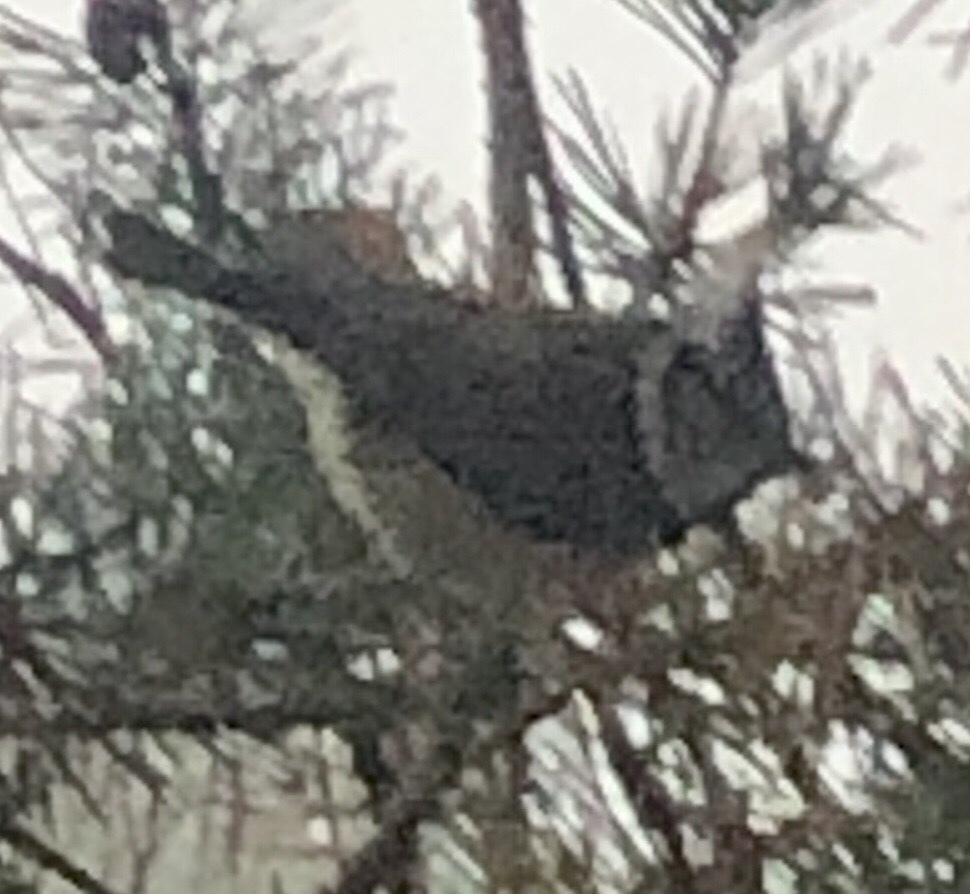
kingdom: Animalia
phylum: Chordata
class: Aves
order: Passeriformes
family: Paridae
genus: Lophophanes
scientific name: Lophophanes cristatus
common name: European crested tit
